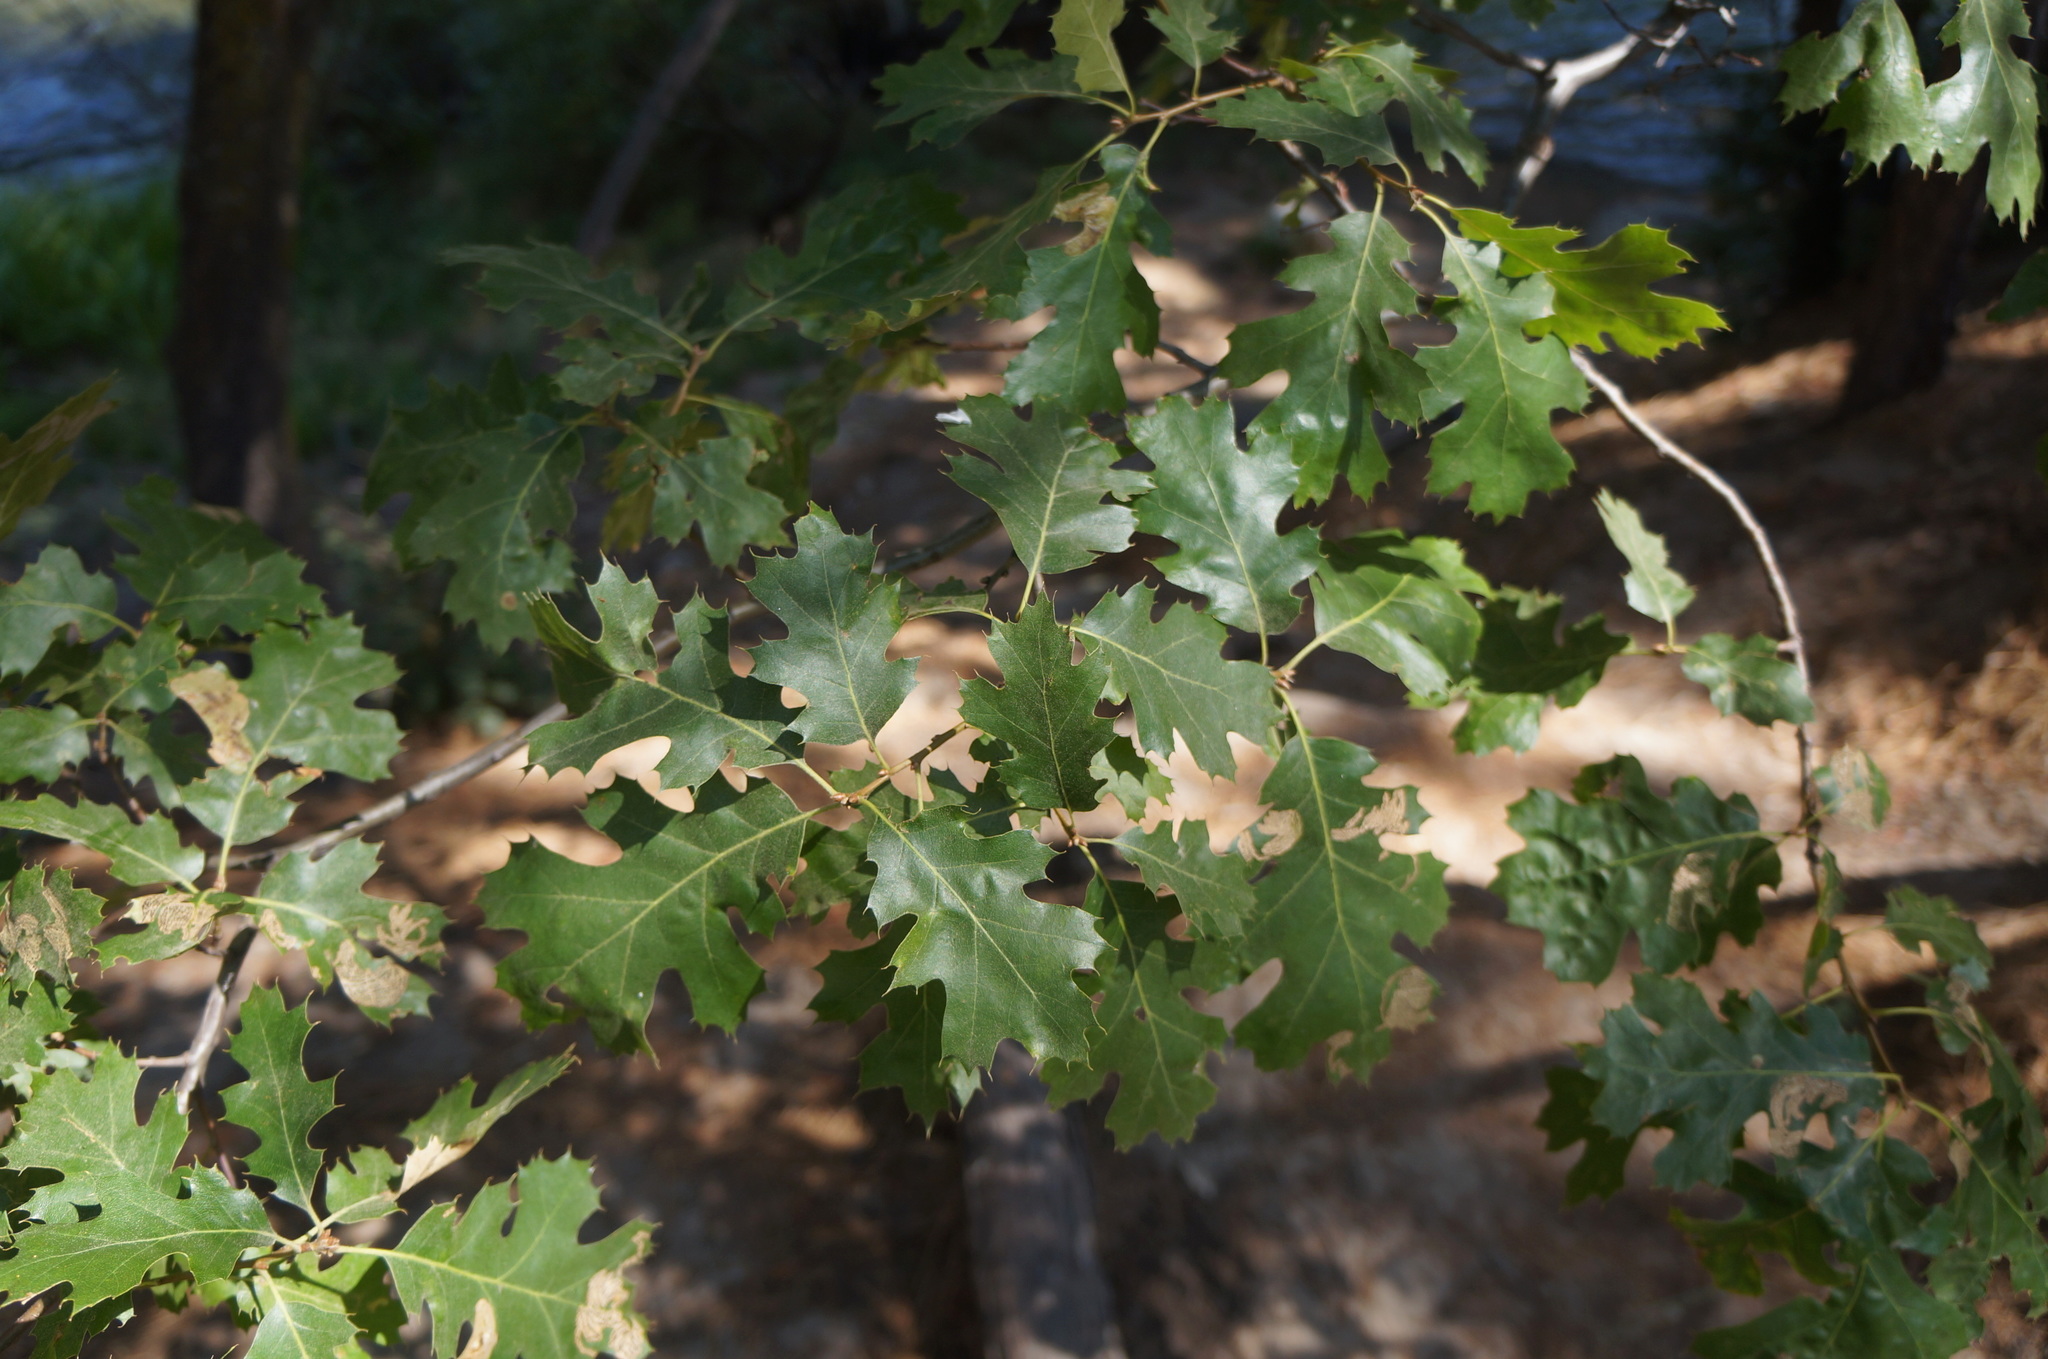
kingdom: Plantae
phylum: Tracheophyta
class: Magnoliopsida
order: Fagales
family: Fagaceae
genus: Quercus
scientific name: Quercus kelloggii
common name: California black oak
